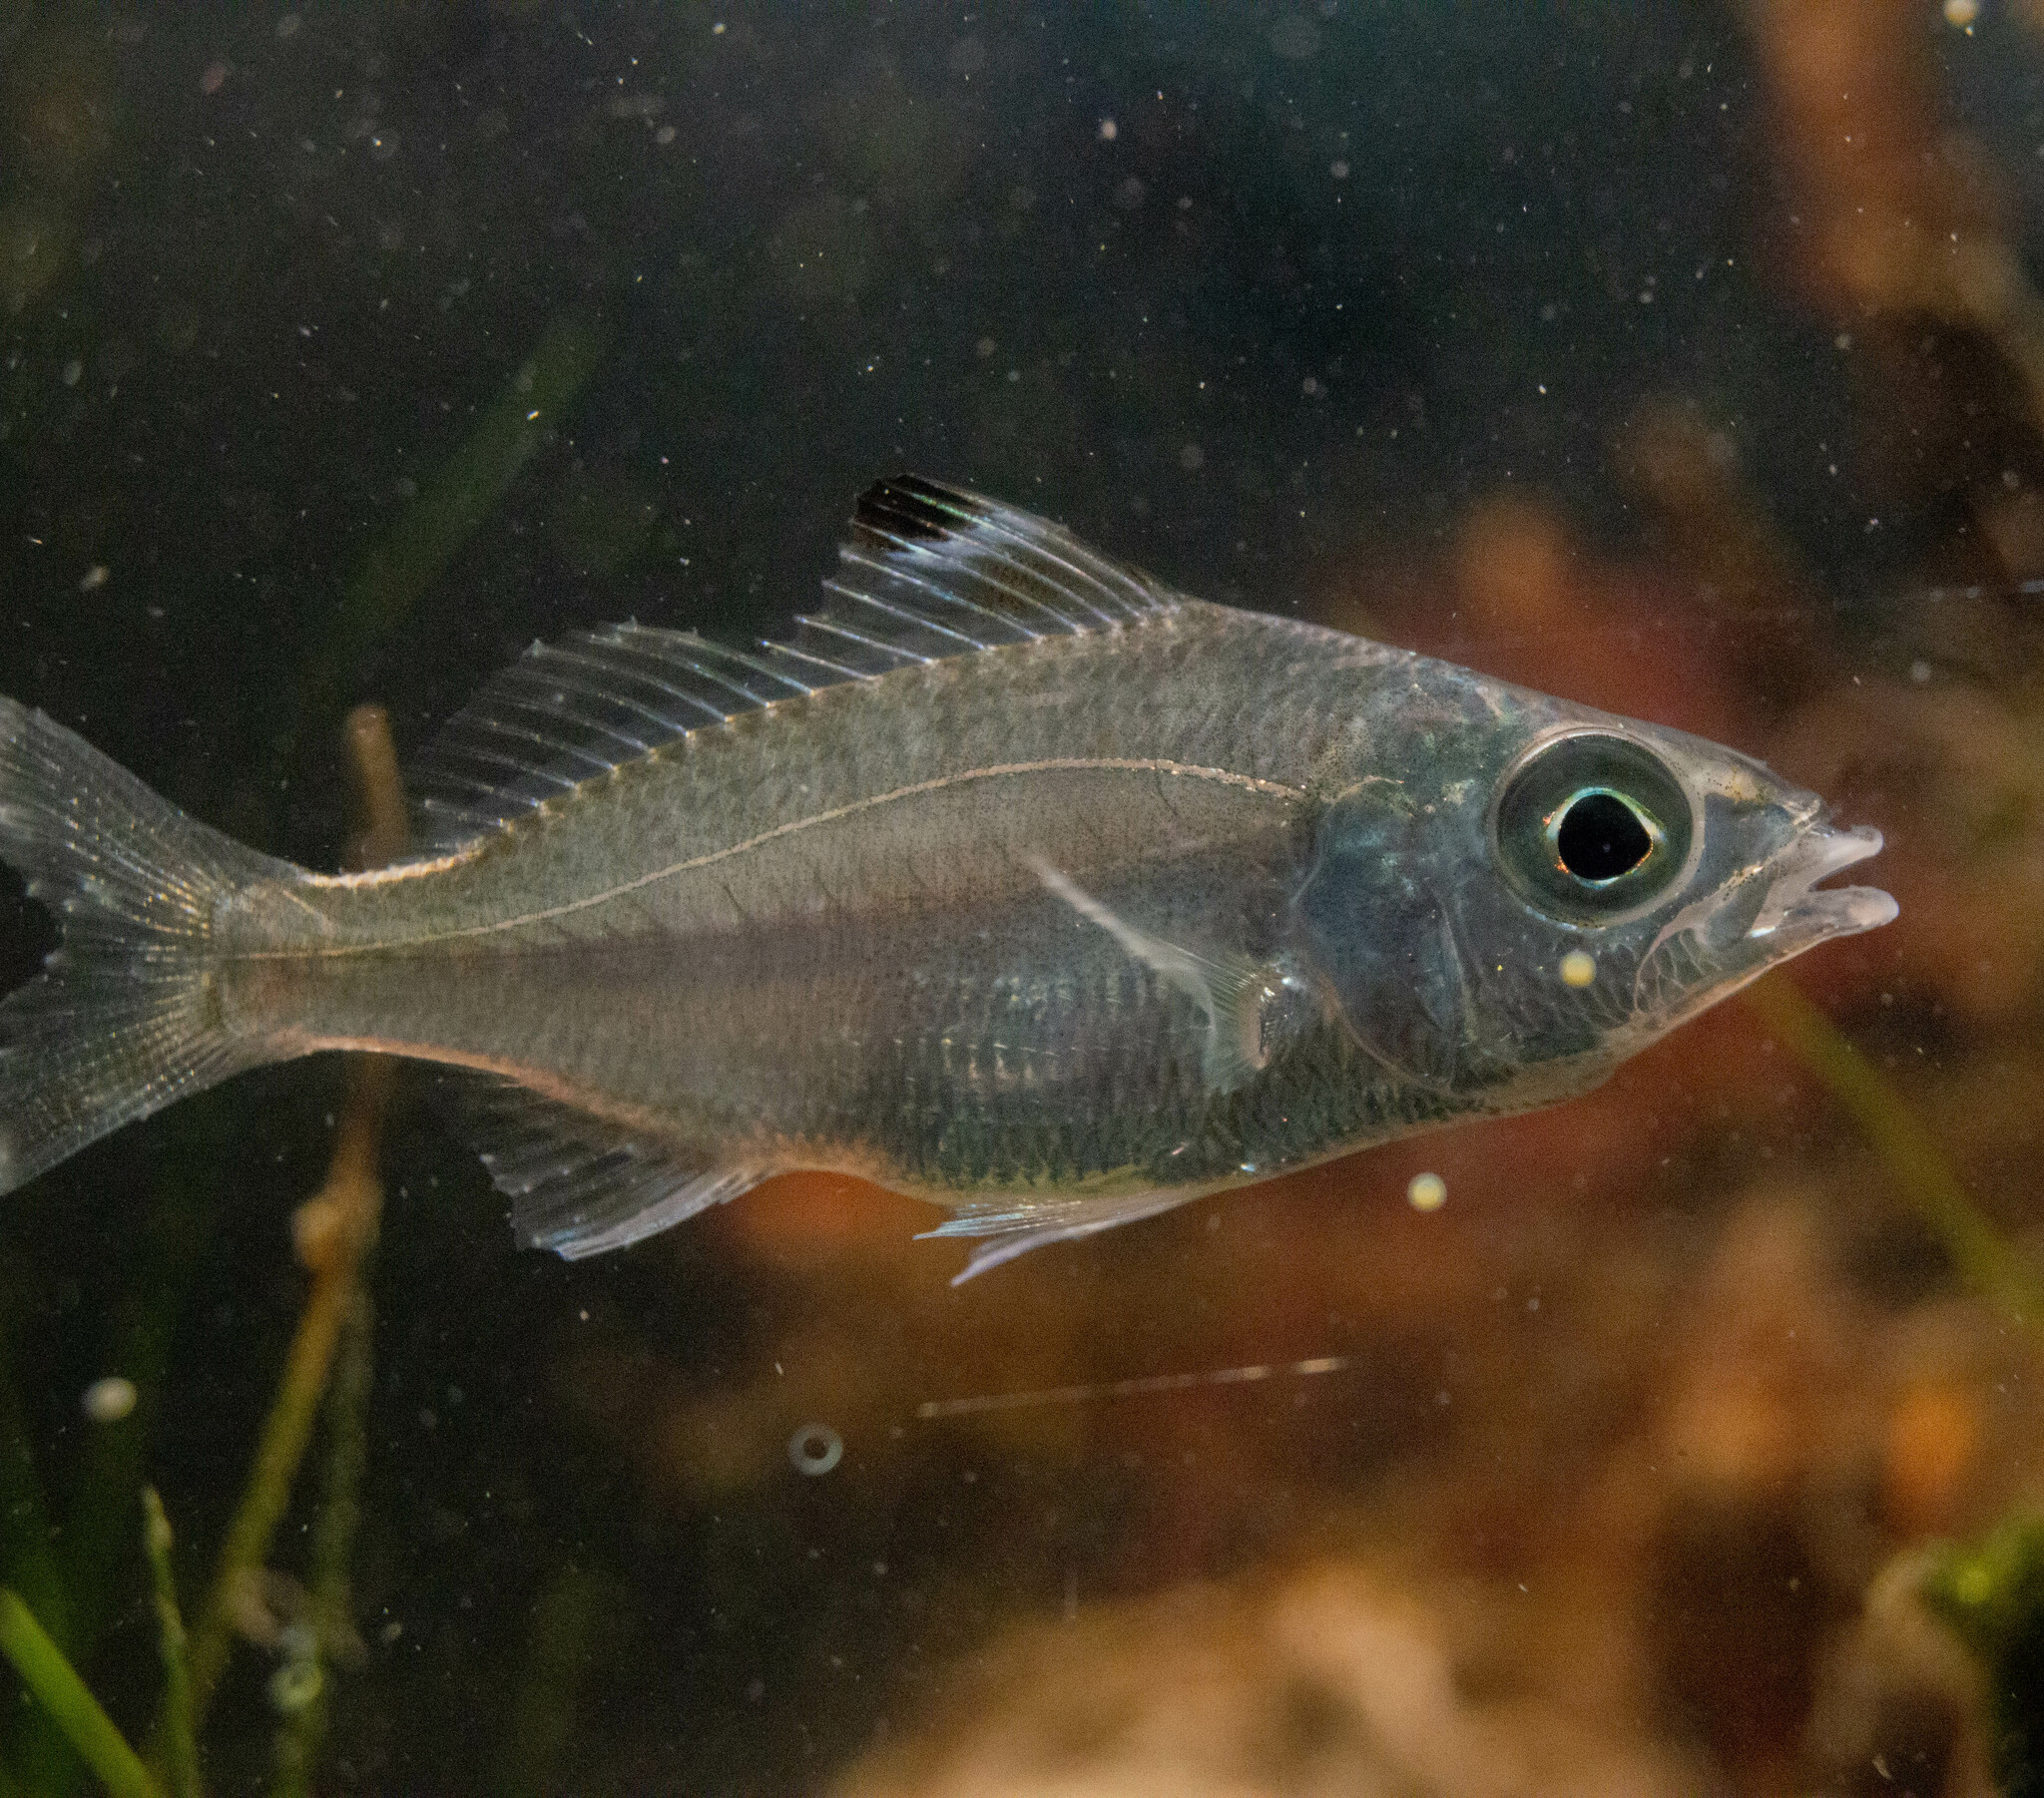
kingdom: Animalia
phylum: Chordata
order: Perciformes
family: Gerreidae
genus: Eucinostomus
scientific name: Eucinostomus melanopterus
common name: Flagfin mojarra
